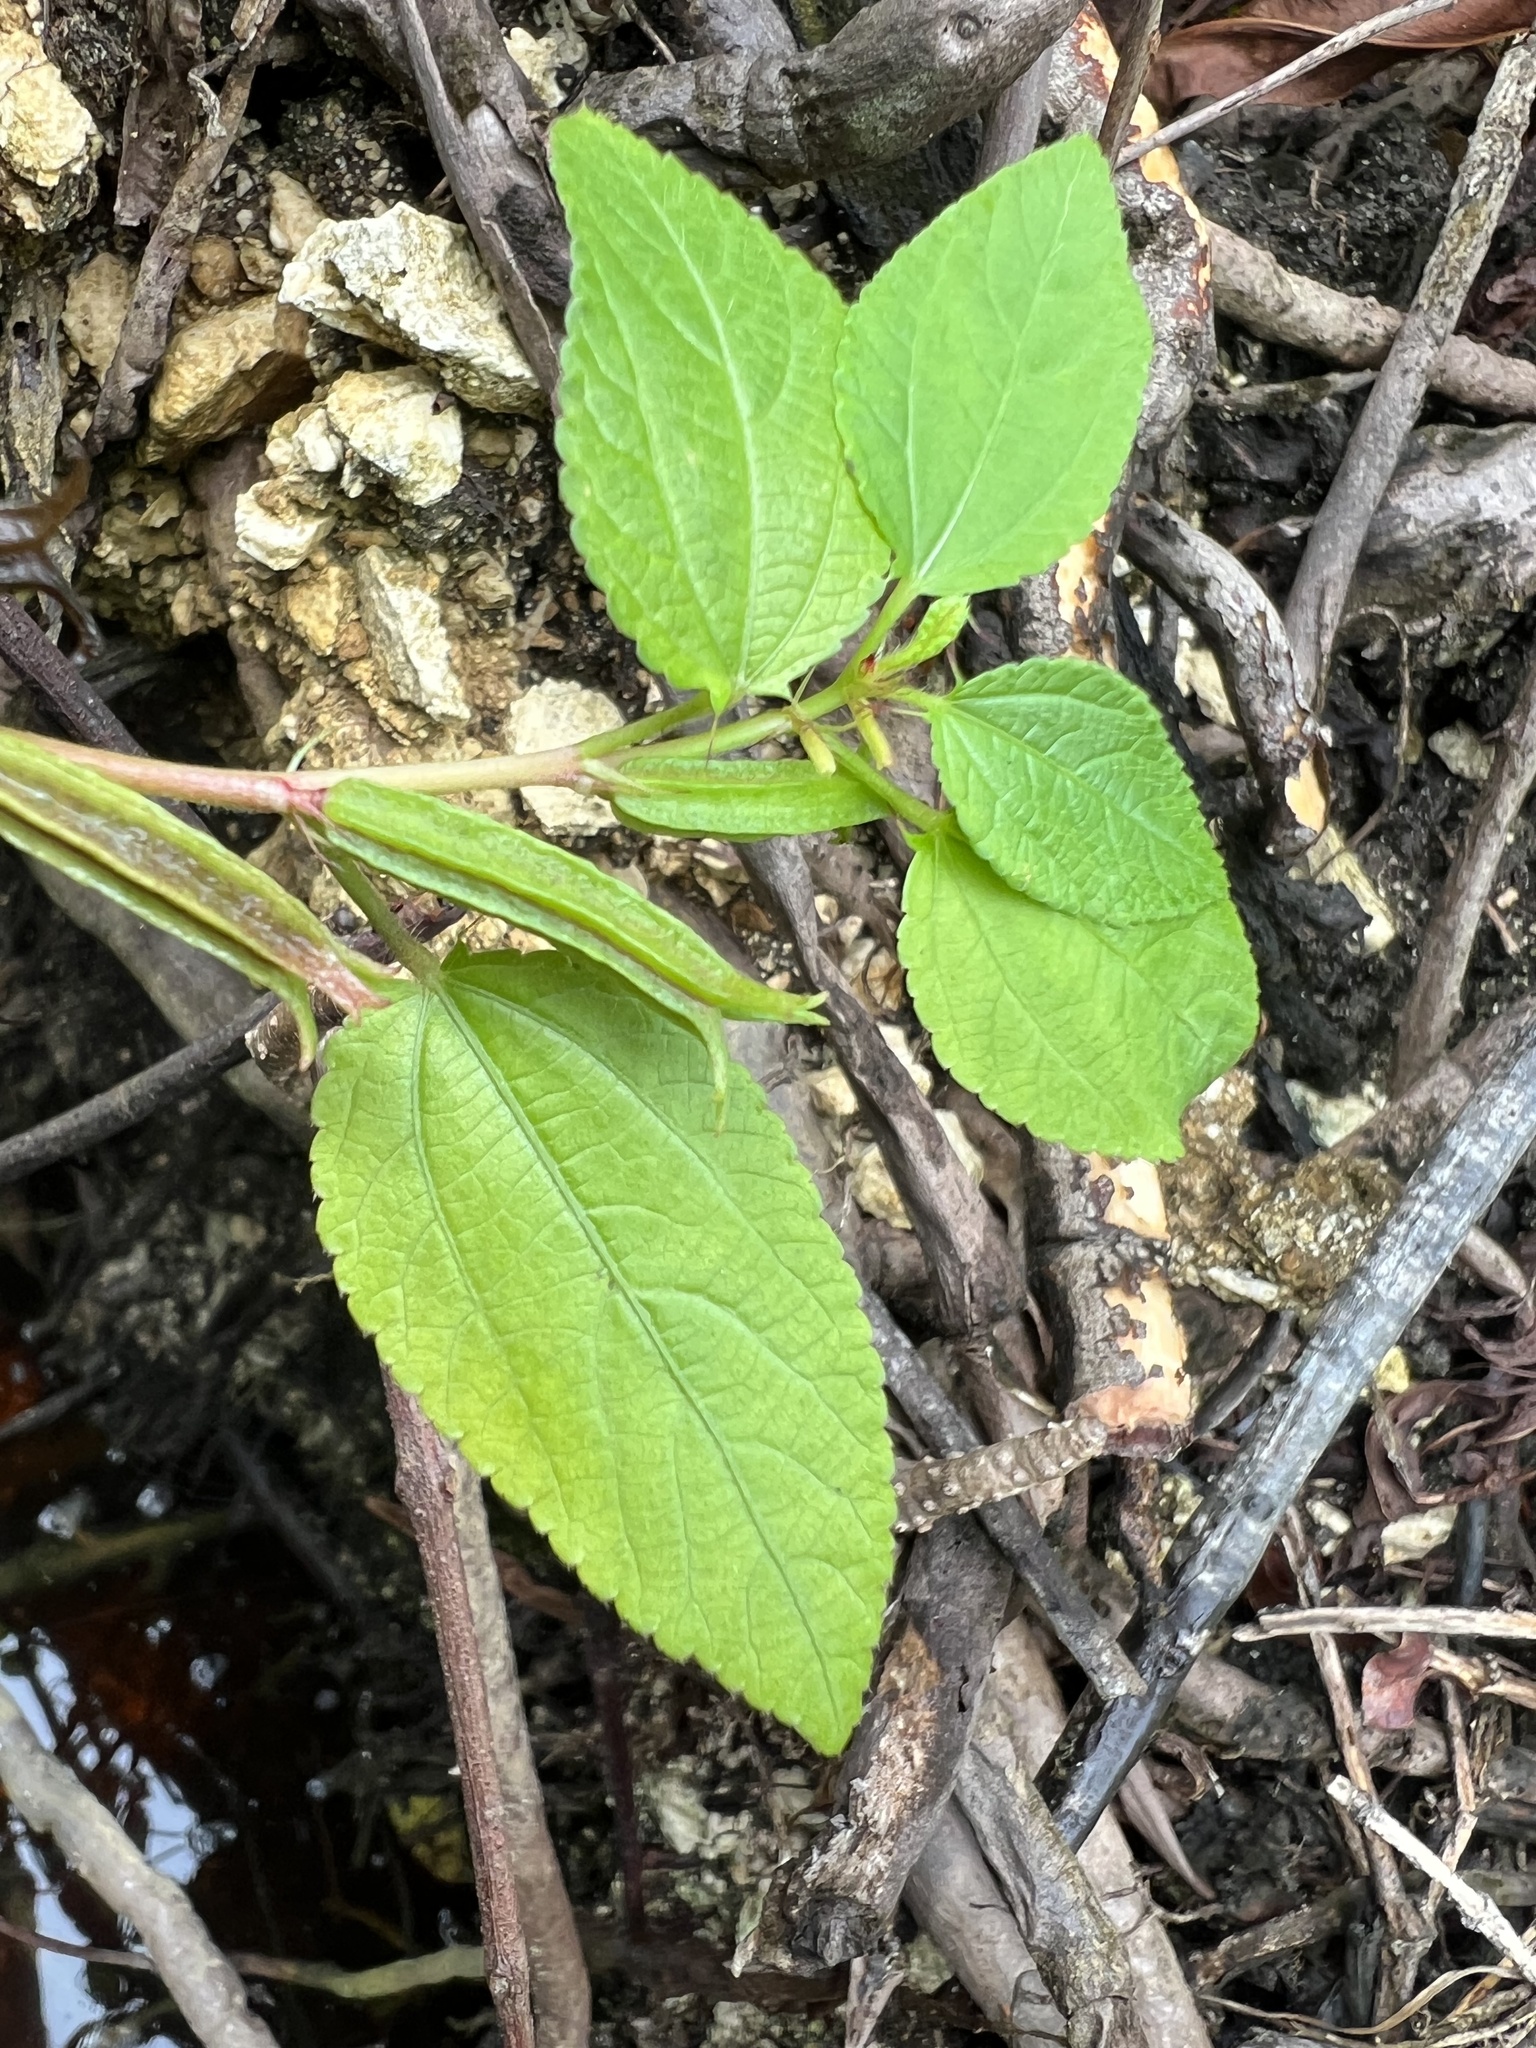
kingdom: Plantae
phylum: Tracheophyta
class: Magnoliopsida
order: Malvales
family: Malvaceae
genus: Corchorus
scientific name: Corchorus aestuans
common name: Jute
